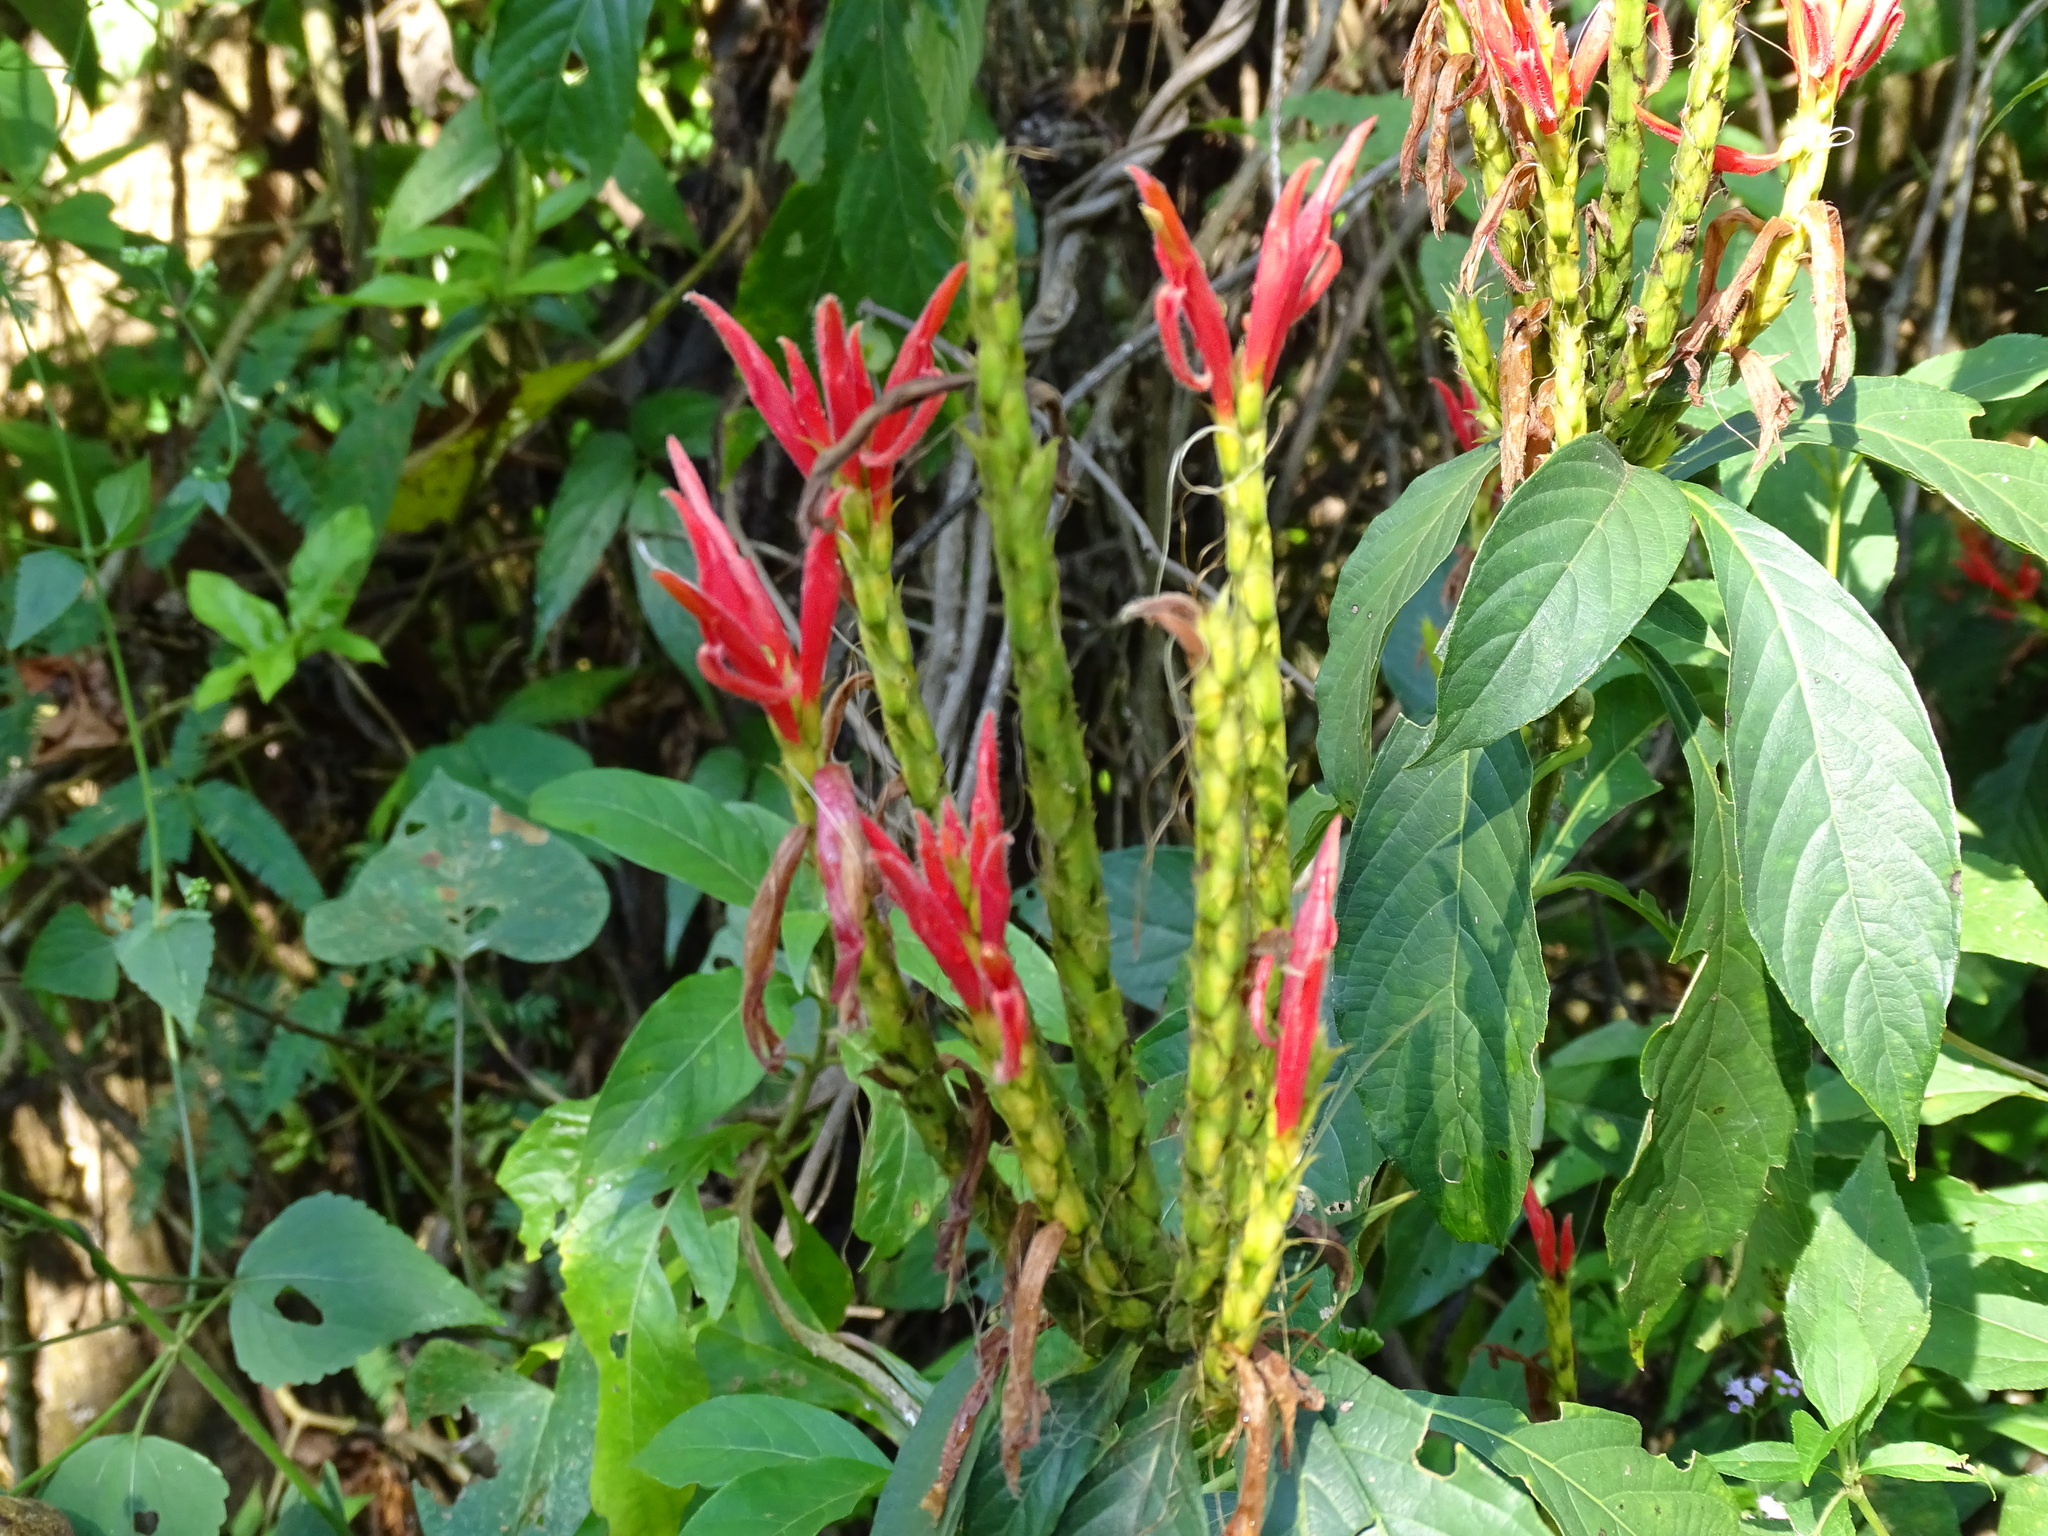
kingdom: Plantae
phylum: Tracheophyta
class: Magnoliopsida
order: Lamiales
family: Acanthaceae
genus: Aphelandra
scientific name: Aphelandra scabra
